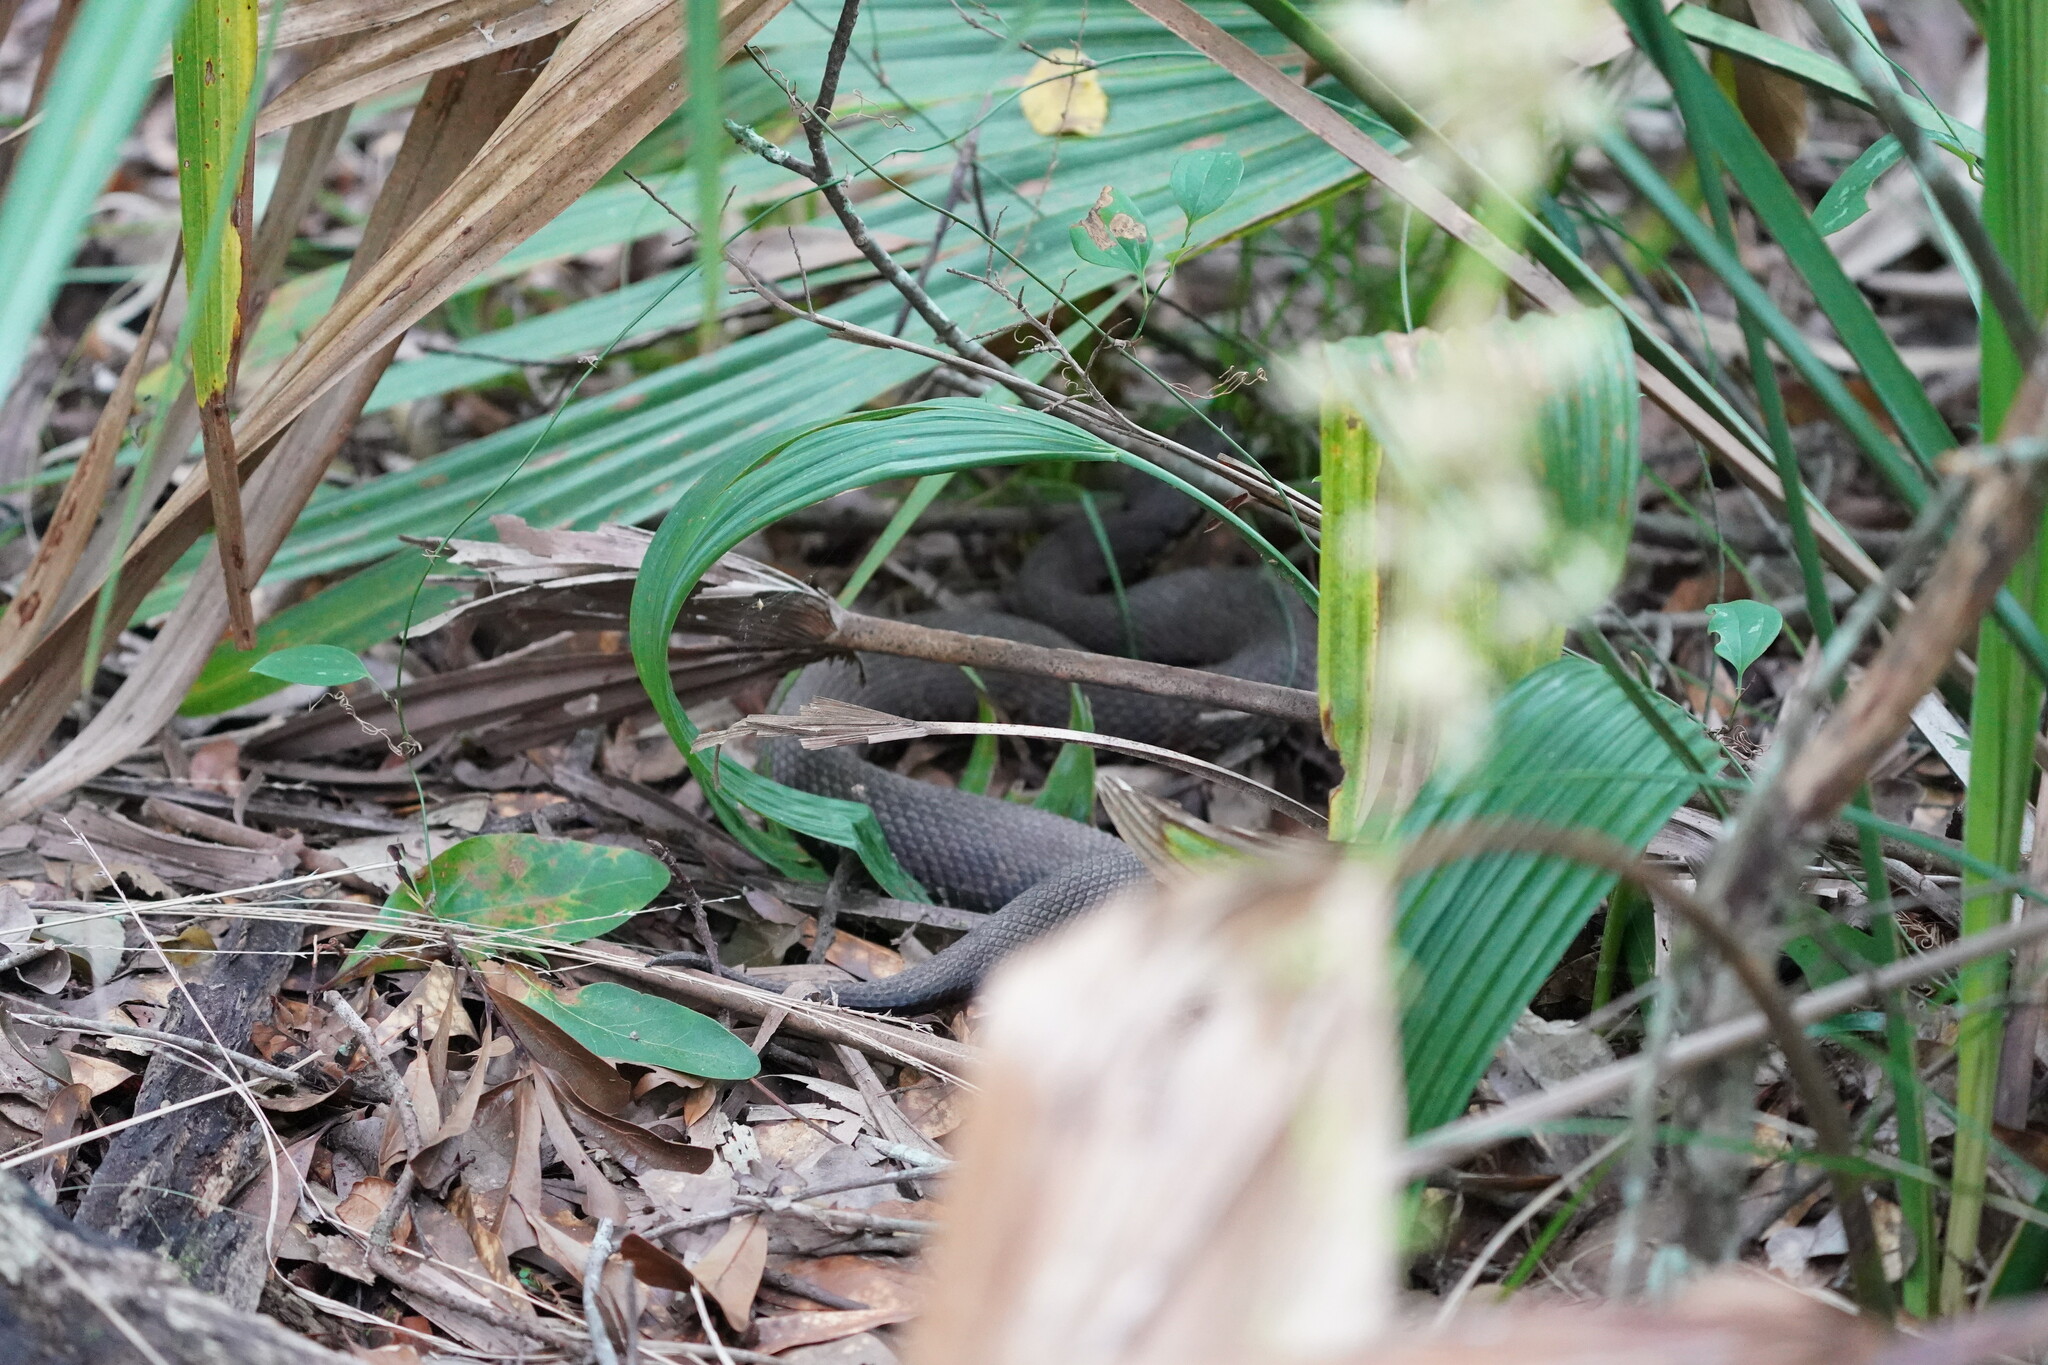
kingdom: Animalia
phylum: Chordata
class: Squamata
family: Viperidae
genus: Agkistrodon
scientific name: Agkistrodon piscivorus
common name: Cottonmouth
